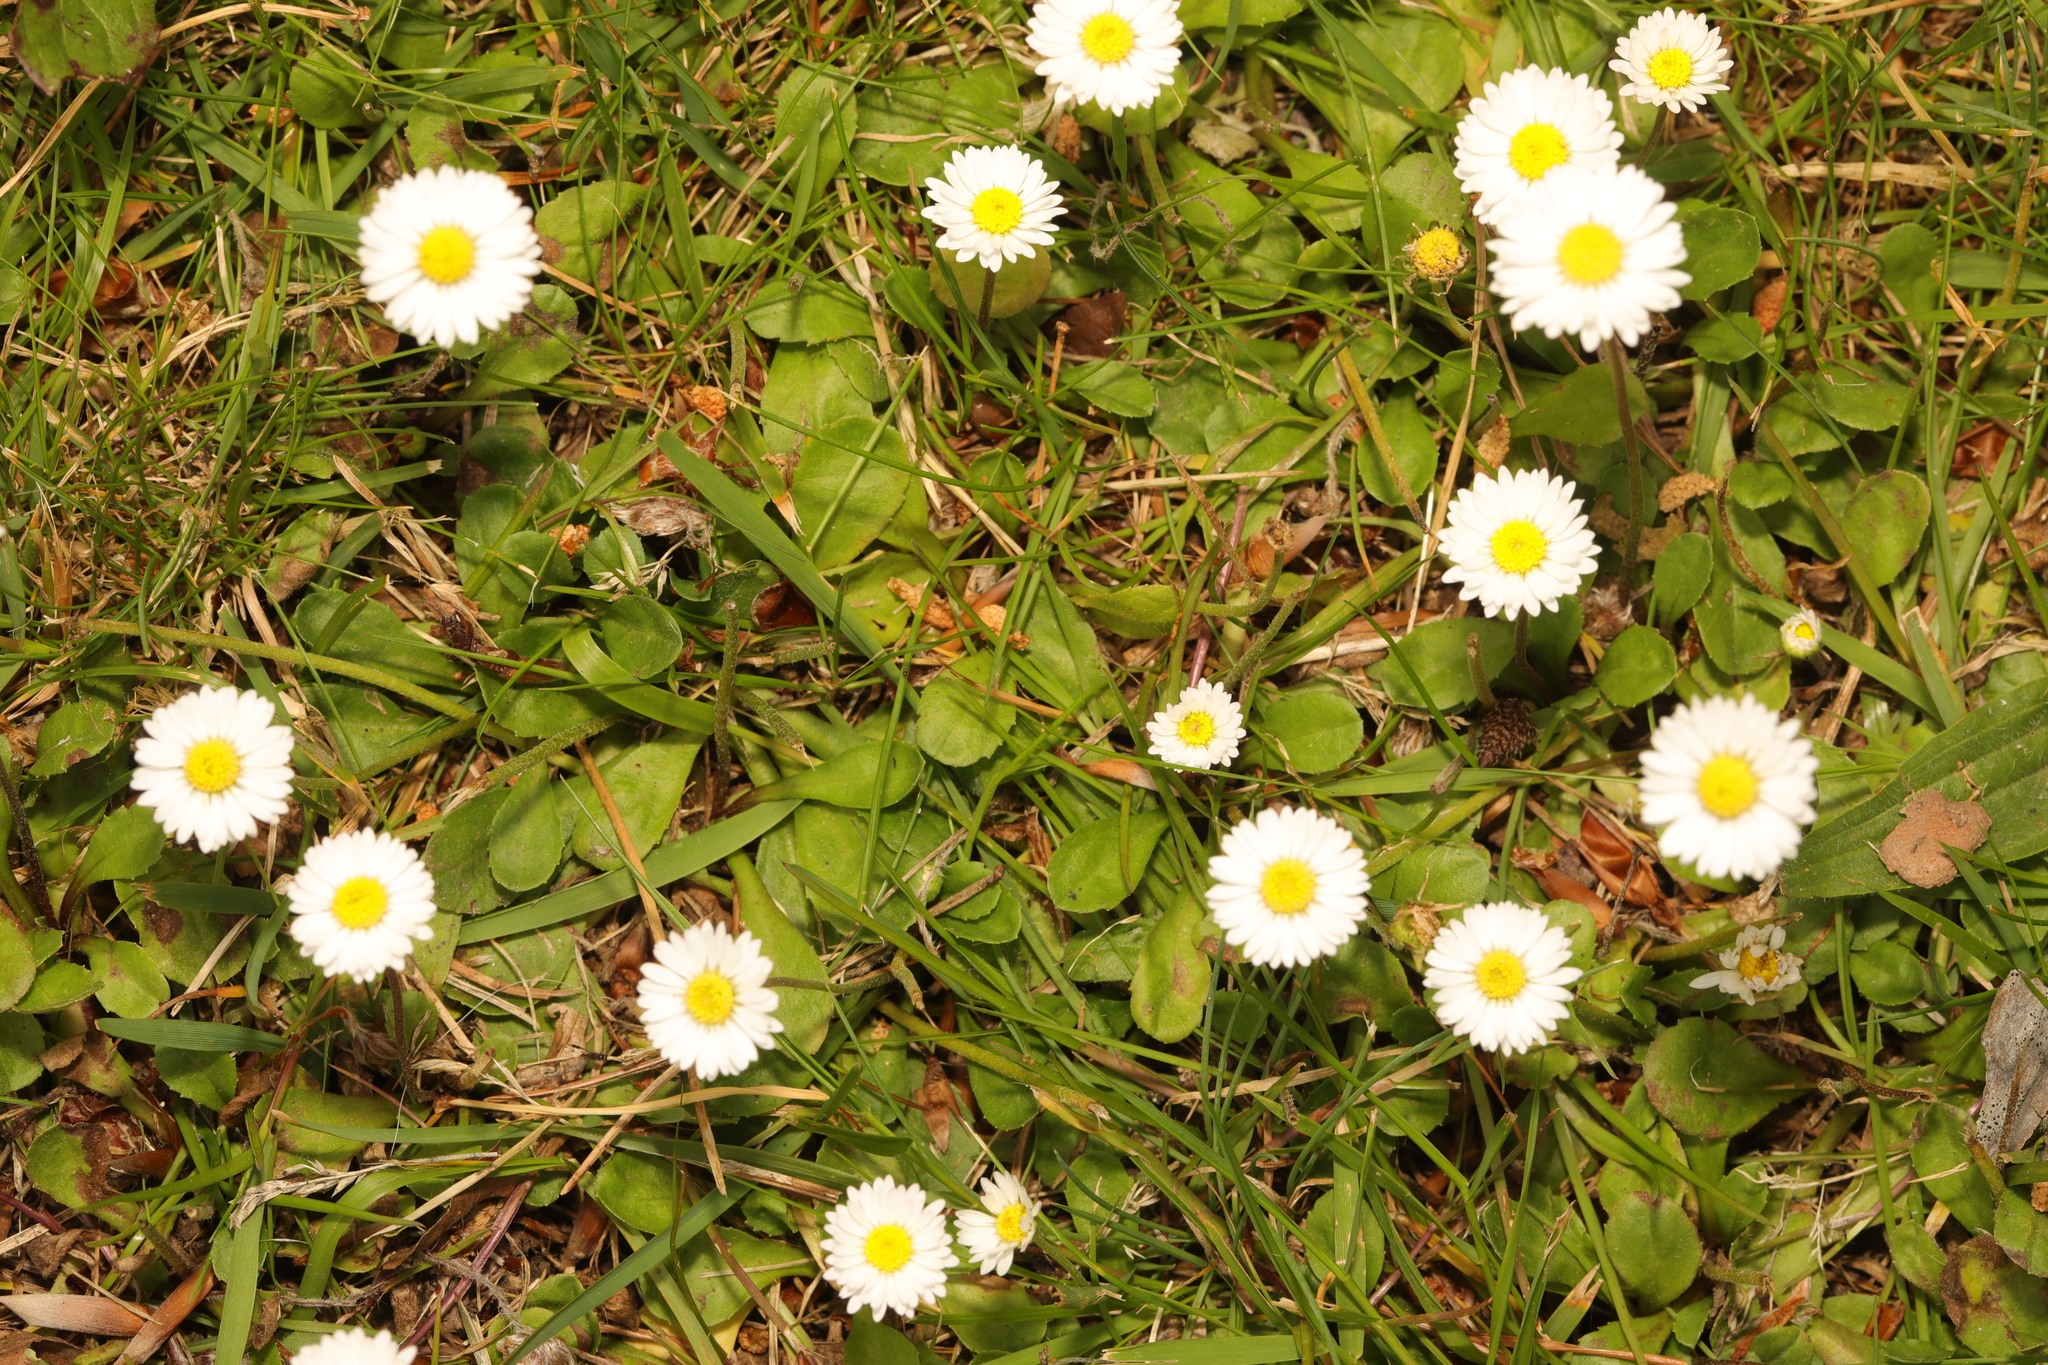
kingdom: Plantae
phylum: Tracheophyta
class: Magnoliopsida
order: Asterales
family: Asteraceae
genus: Bellis
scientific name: Bellis perennis
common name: Lawndaisy
